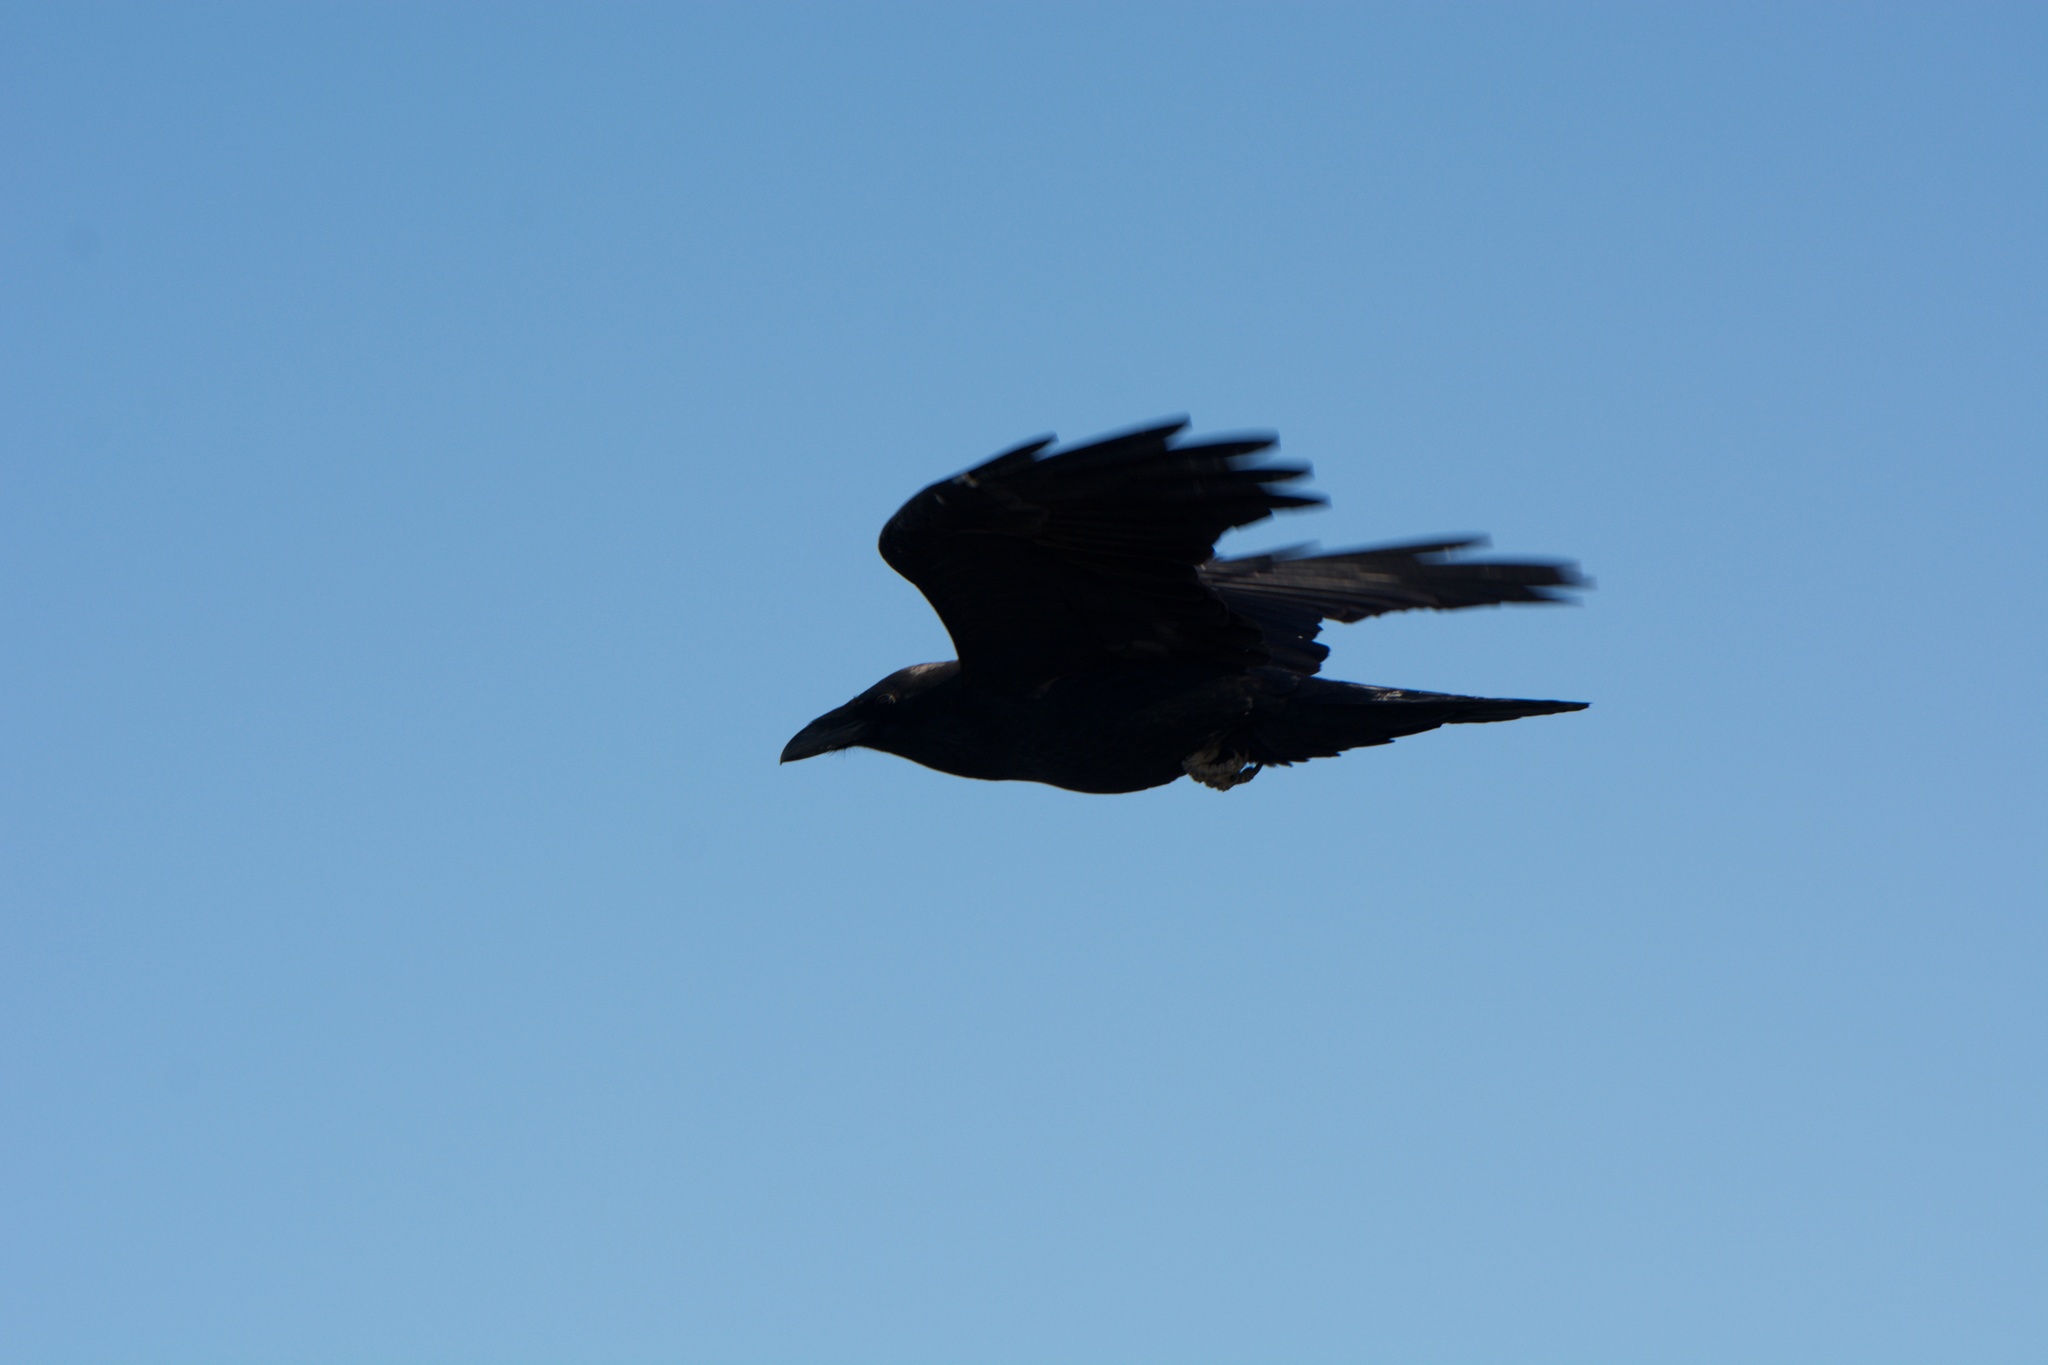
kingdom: Animalia
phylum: Chordata
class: Aves
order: Passeriformes
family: Corvidae
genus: Corvus
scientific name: Corvus corax
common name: Common raven
